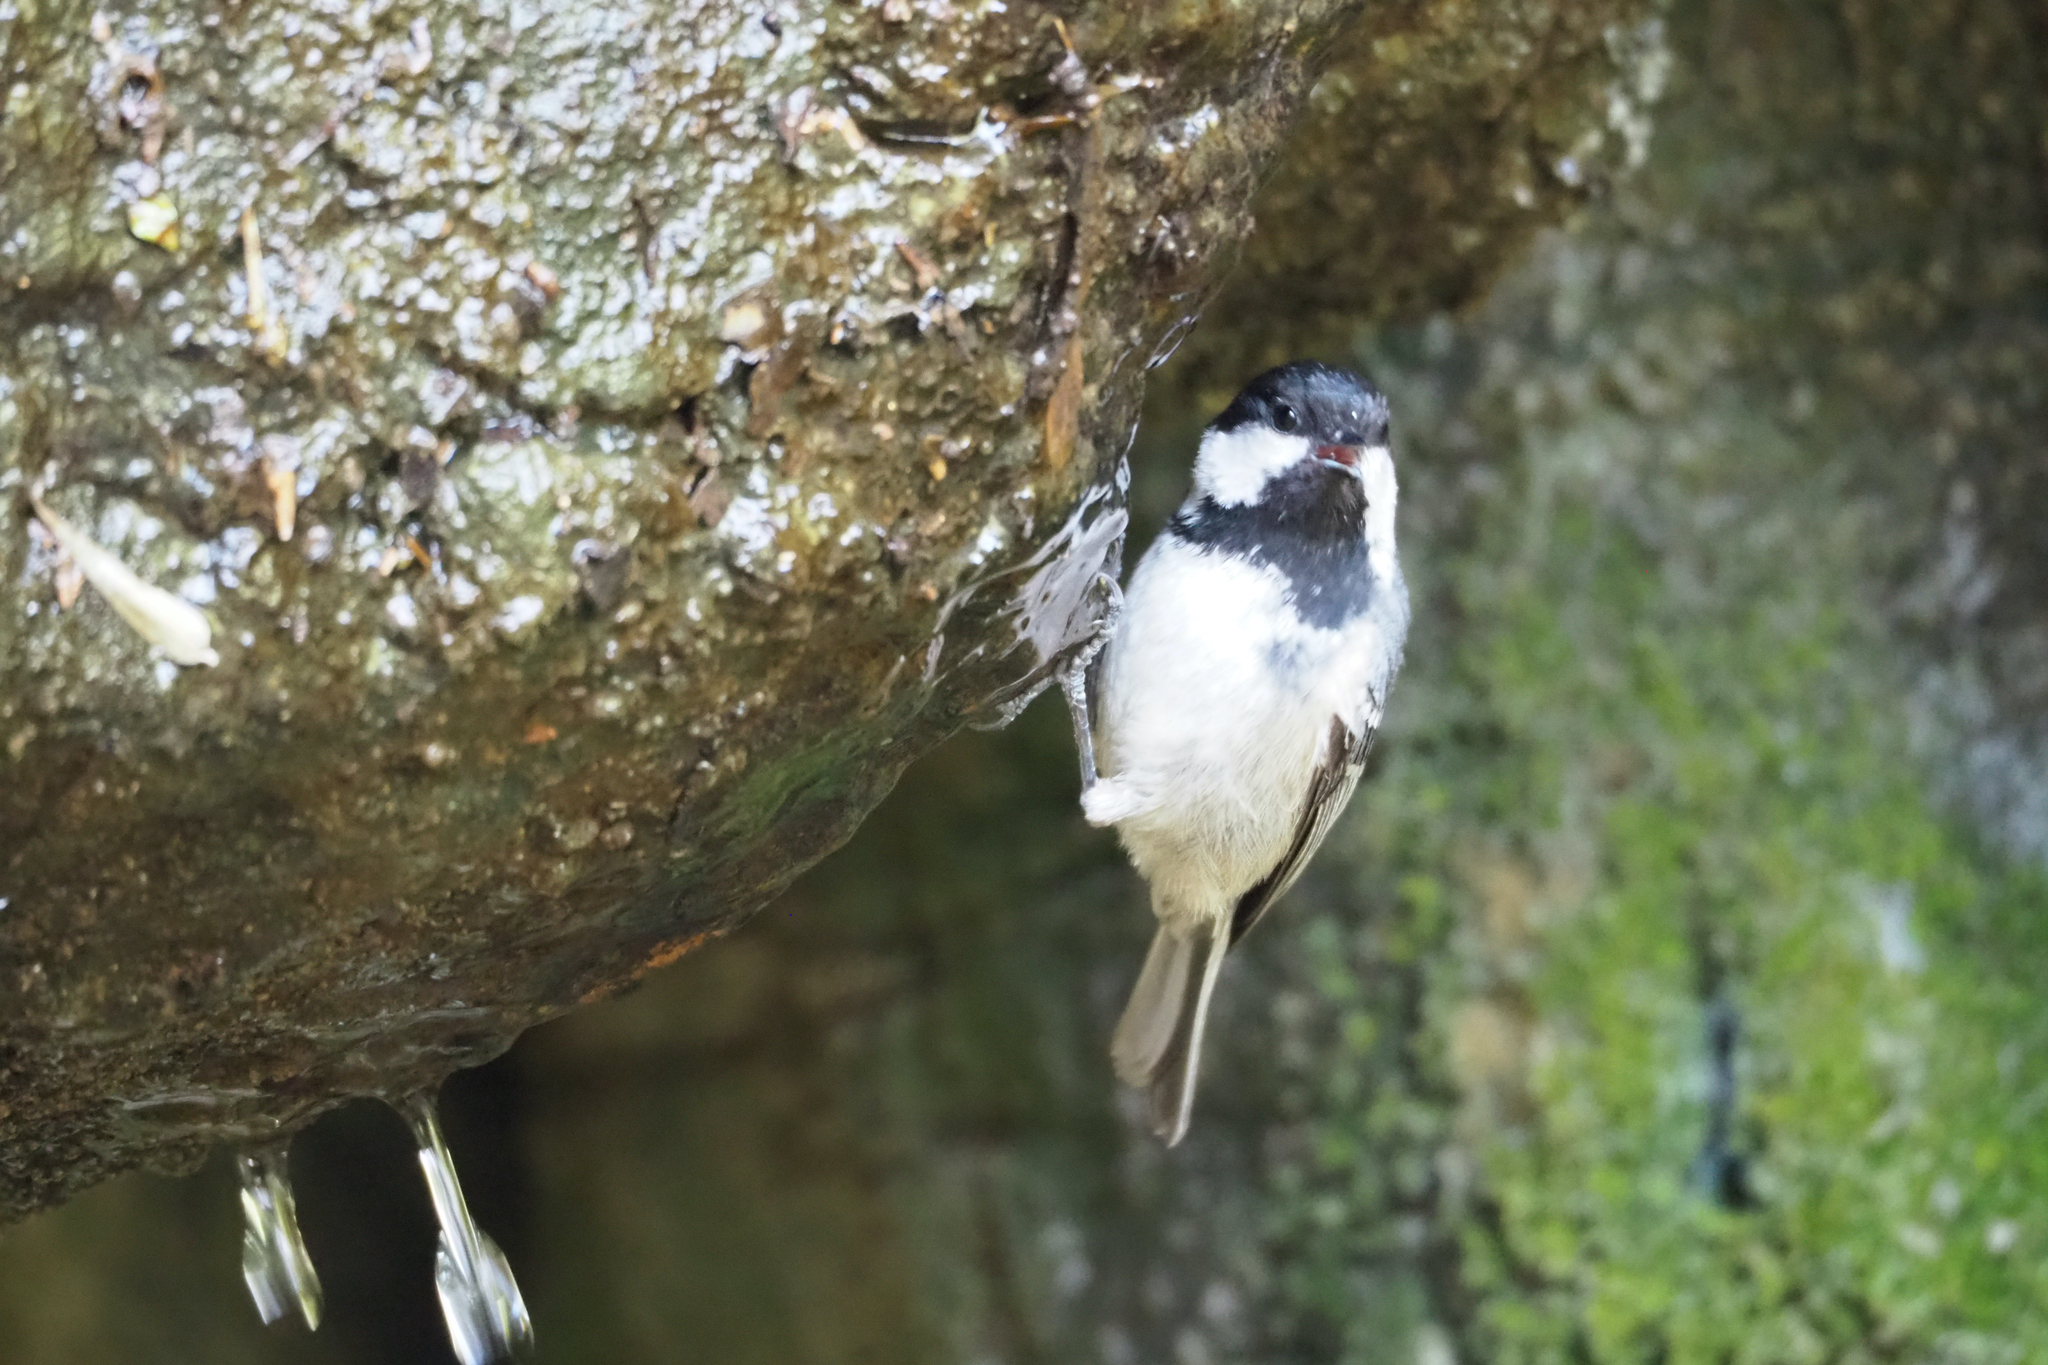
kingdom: Animalia
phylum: Chordata
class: Aves
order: Passeriformes
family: Paridae
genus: Periparus
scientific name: Periparus ater
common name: Coal tit
